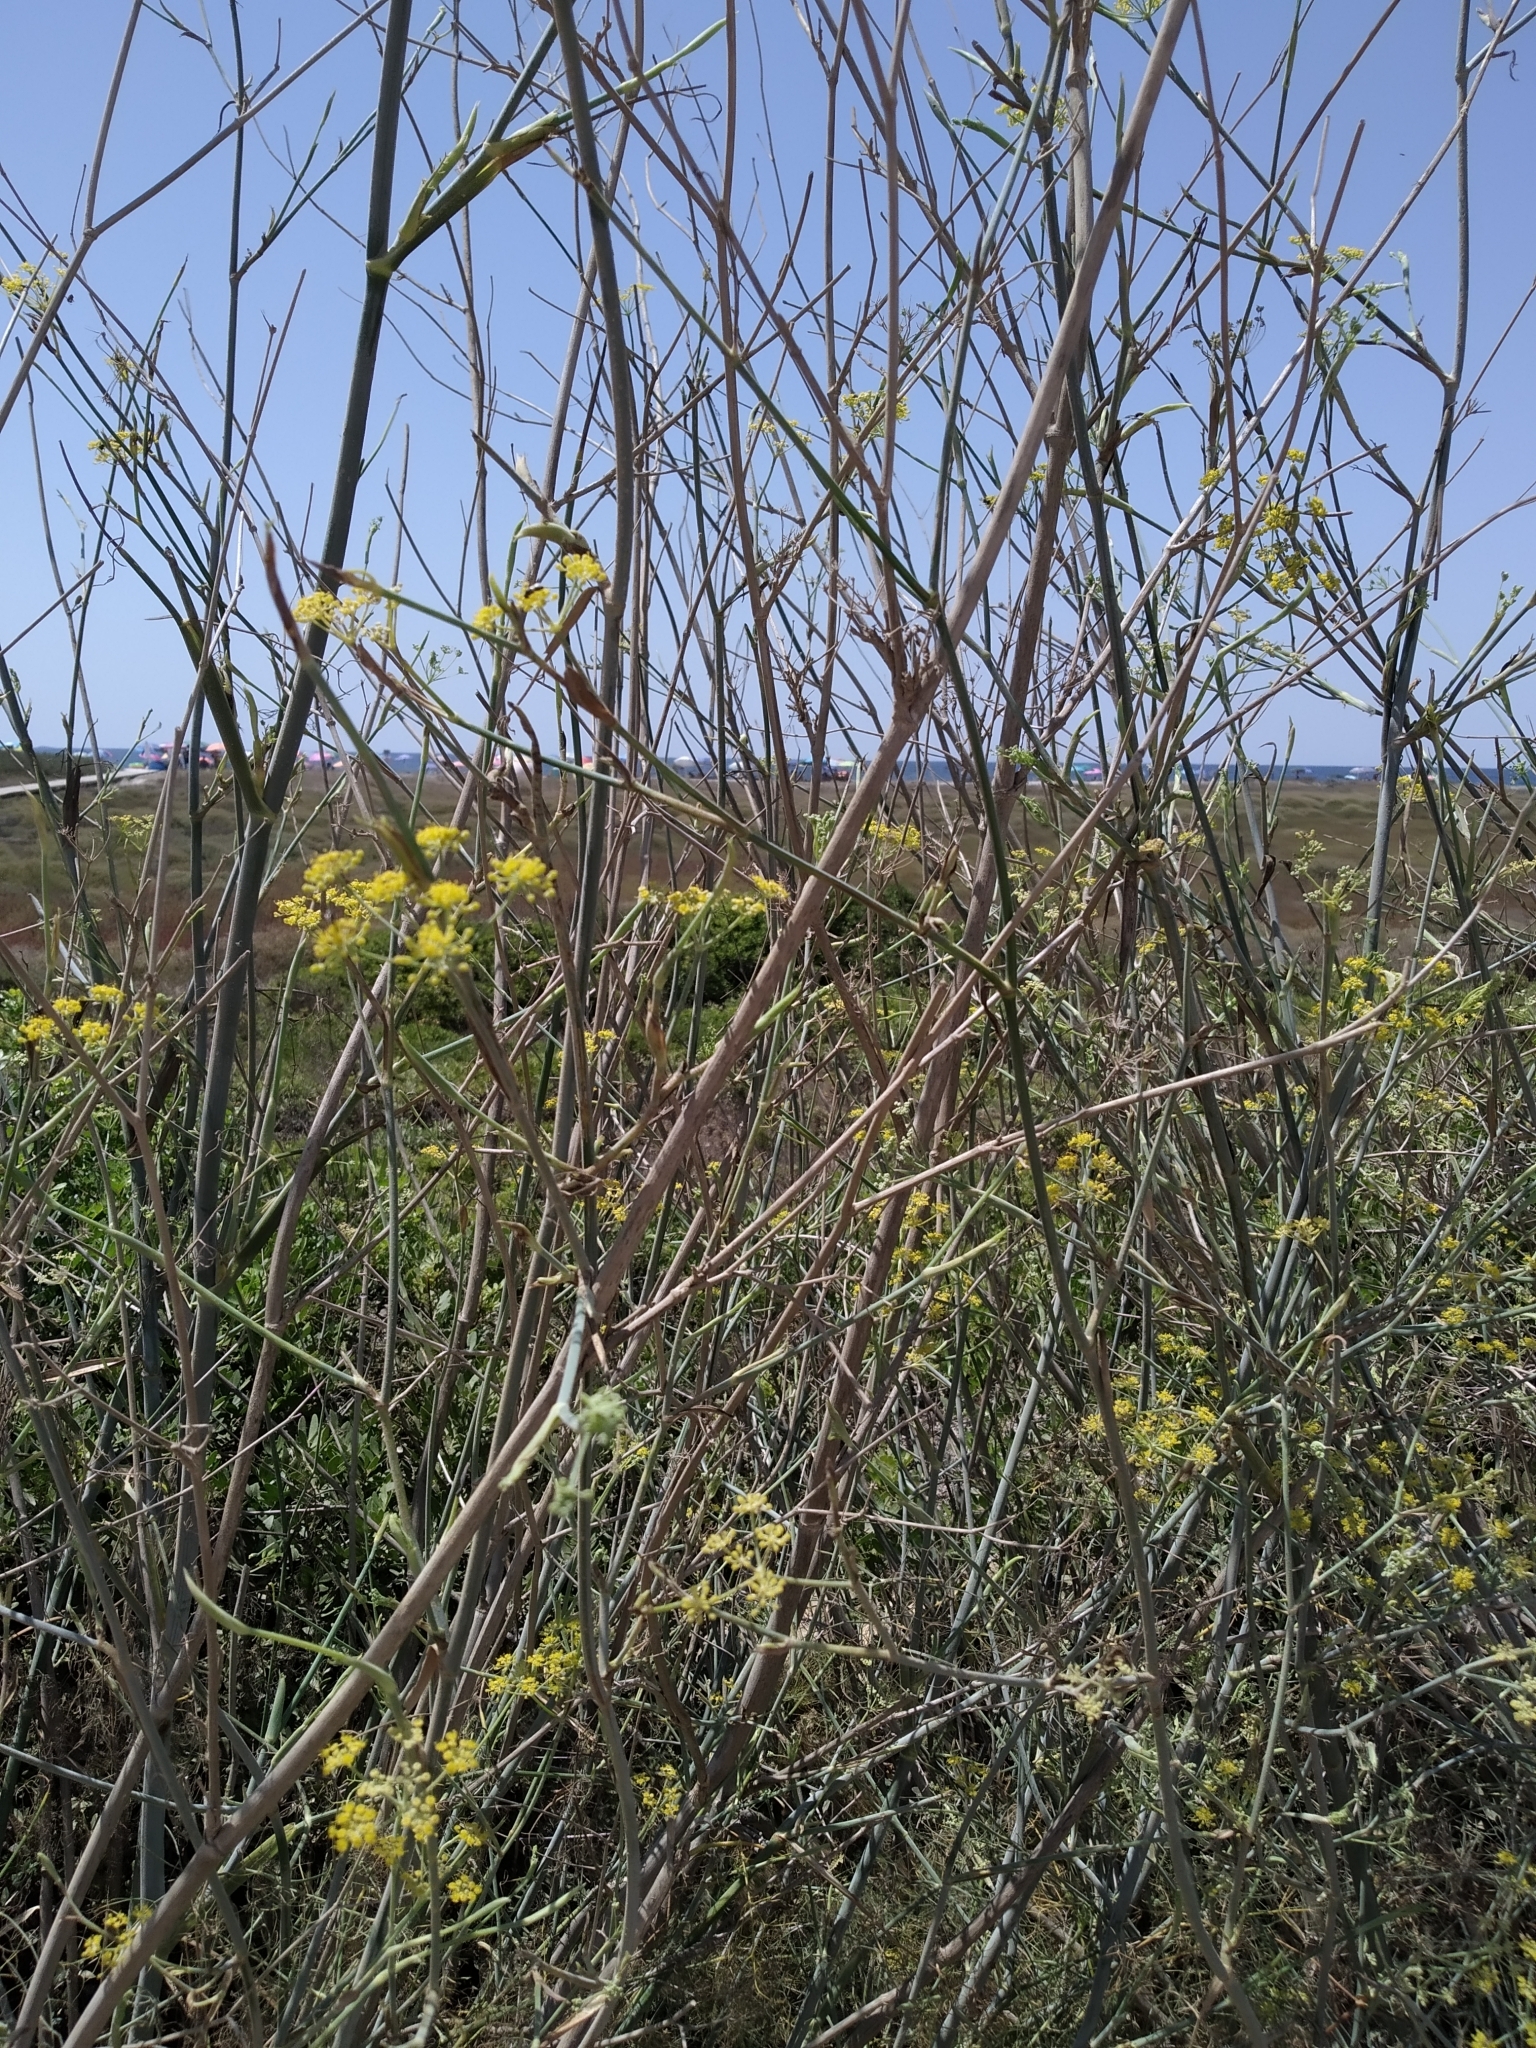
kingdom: Plantae
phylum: Tracheophyta
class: Magnoliopsida
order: Apiales
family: Apiaceae
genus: Foeniculum
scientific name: Foeniculum vulgare
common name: Fennel
